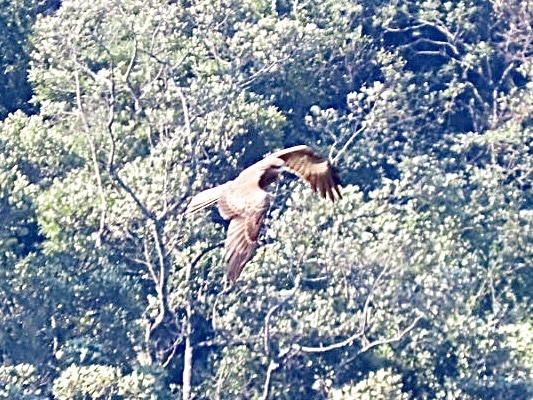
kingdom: Animalia
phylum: Chordata
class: Aves
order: Accipitriformes
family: Accipitridae
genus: Milvus
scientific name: Milvus migrans
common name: Black kite
